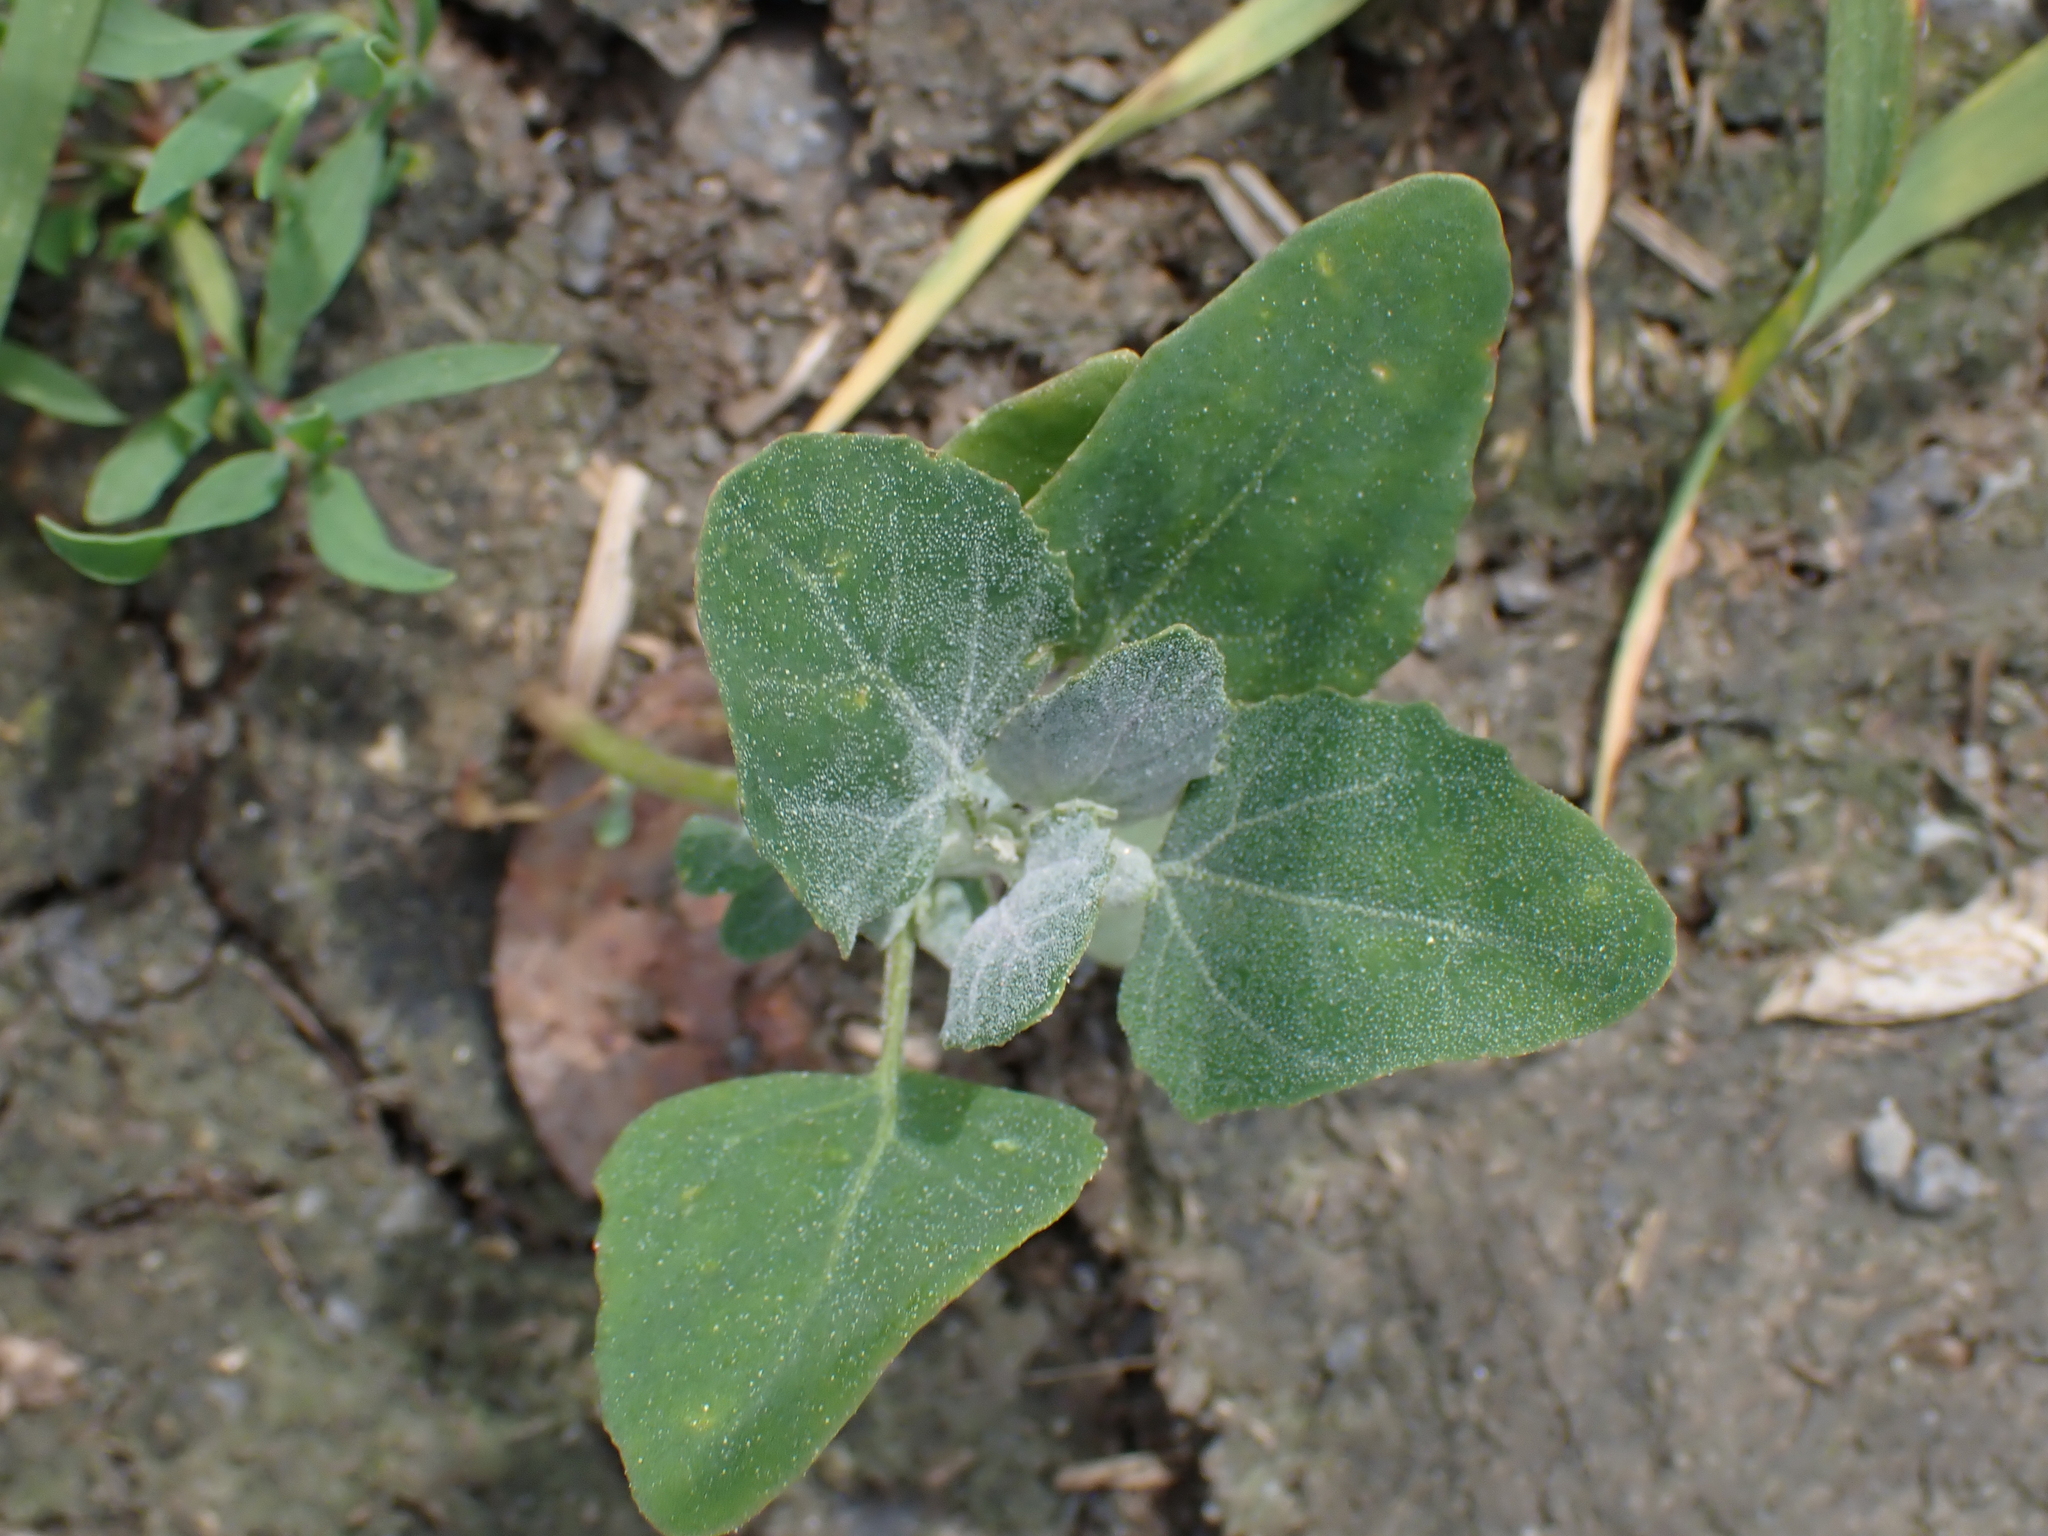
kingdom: Plantae
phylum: Tracheophyta
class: Magnoliopsida
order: Caryophyllales
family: Amaranthaceae
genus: Chenopodium
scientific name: Chenopodium album
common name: Fat-hen
